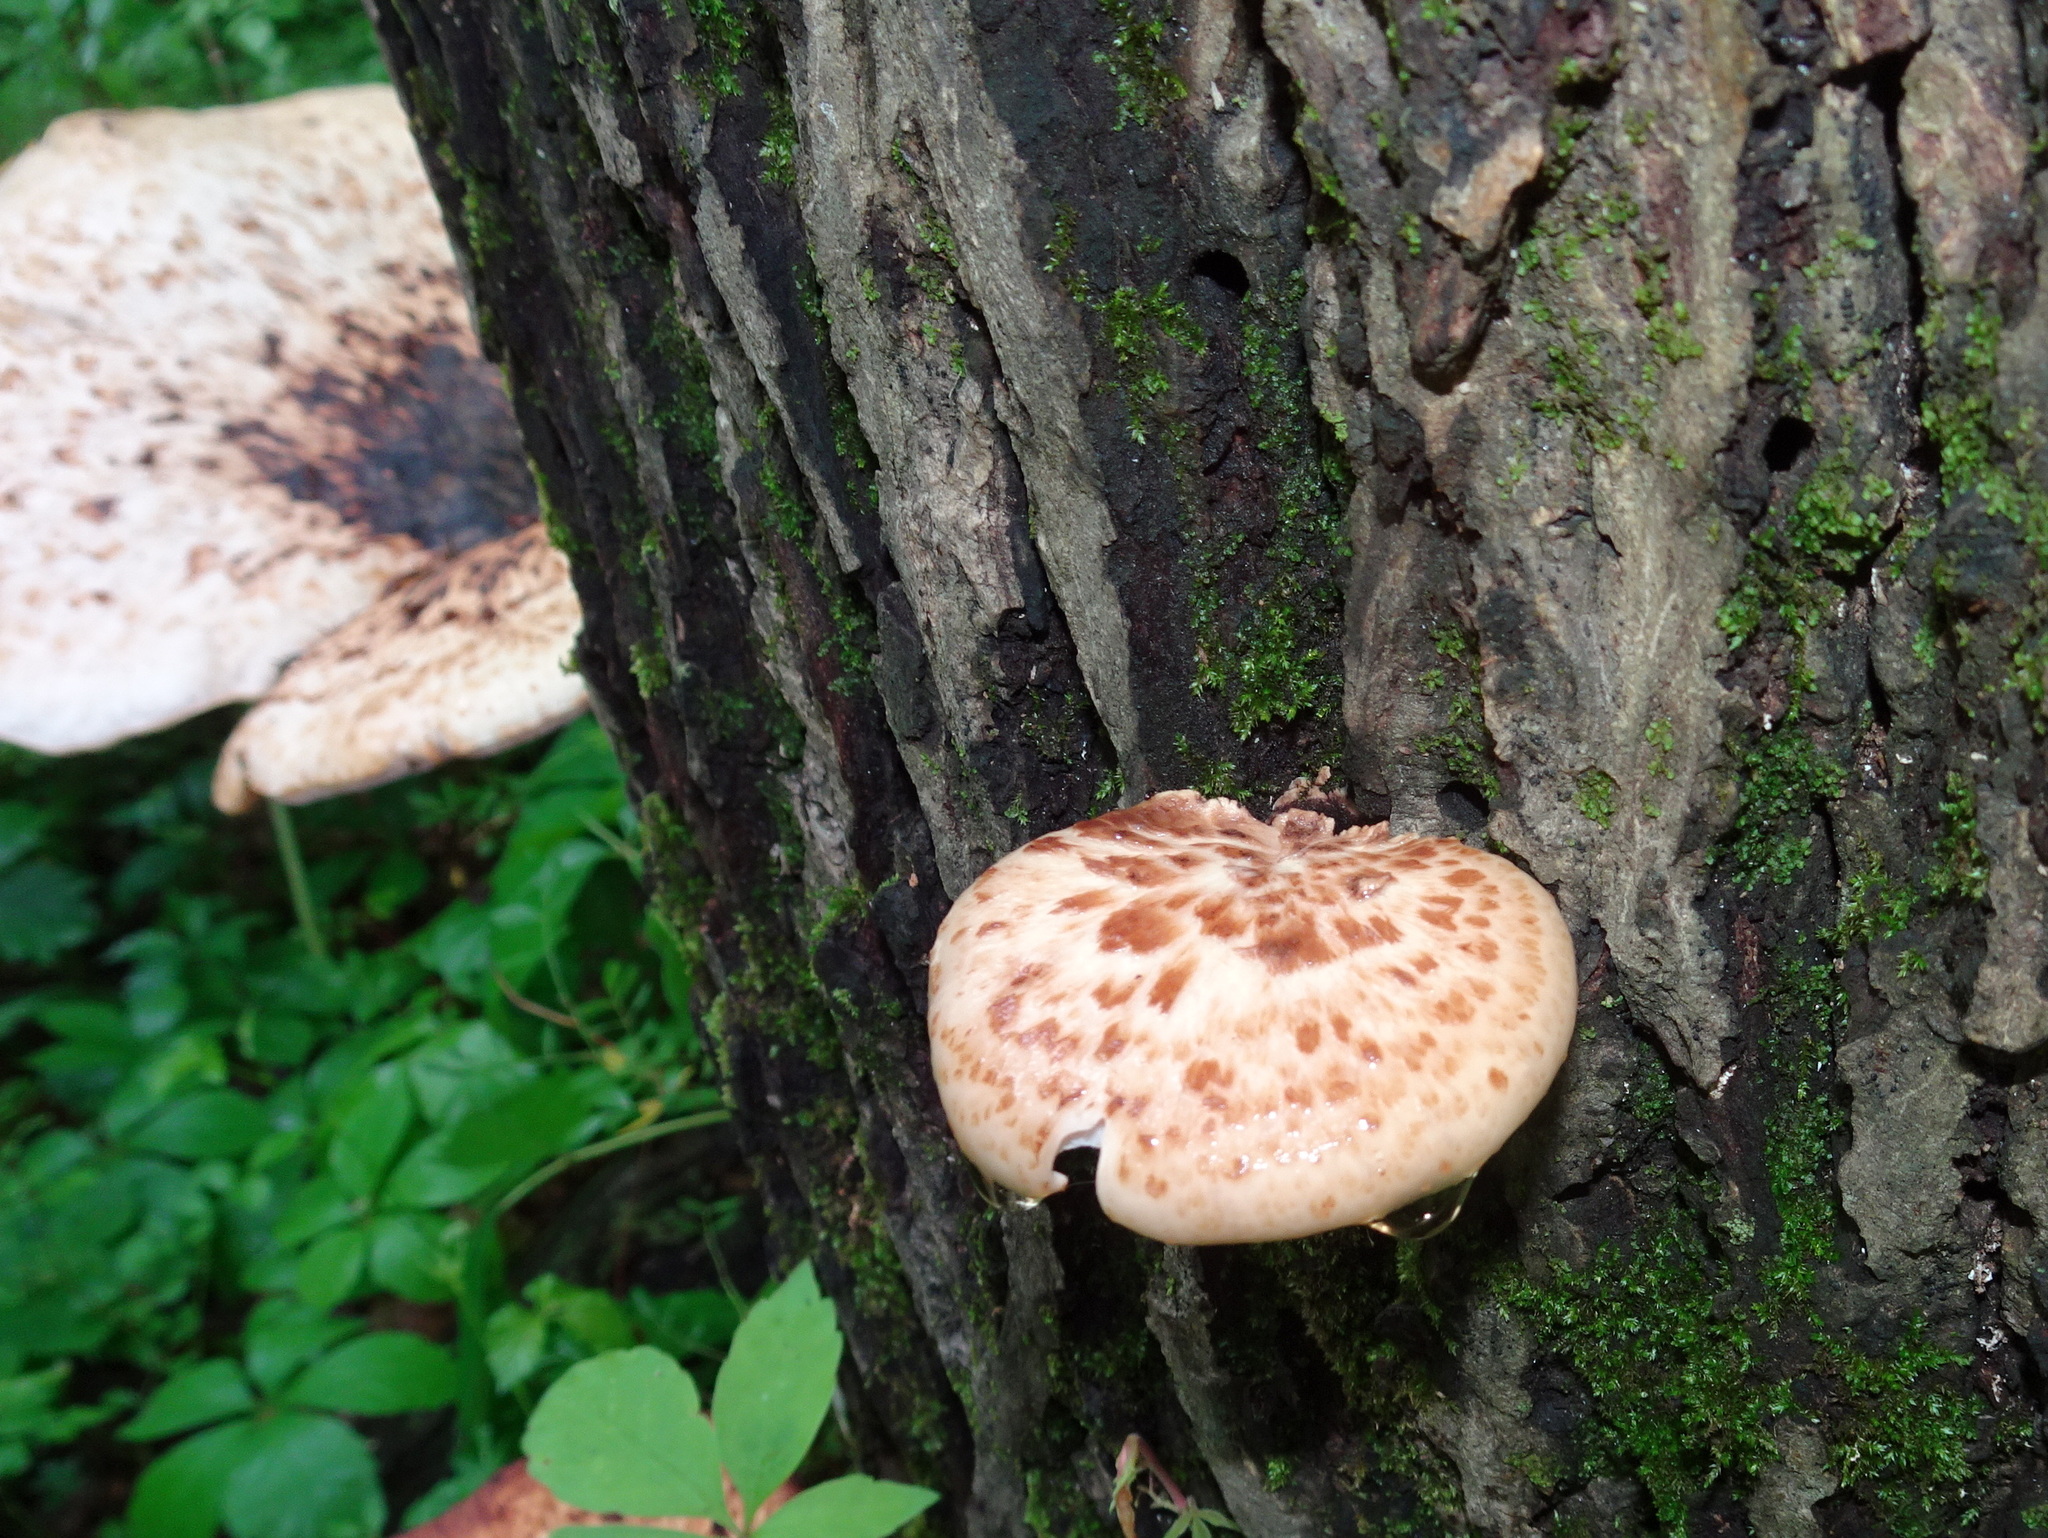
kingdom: Fungi
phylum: Basidiomycota
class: Agaricomycetes
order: Polyporales
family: Polyporaceae
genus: Cerioporus
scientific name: Cerioporus squamosus
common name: Dryad's saddle
